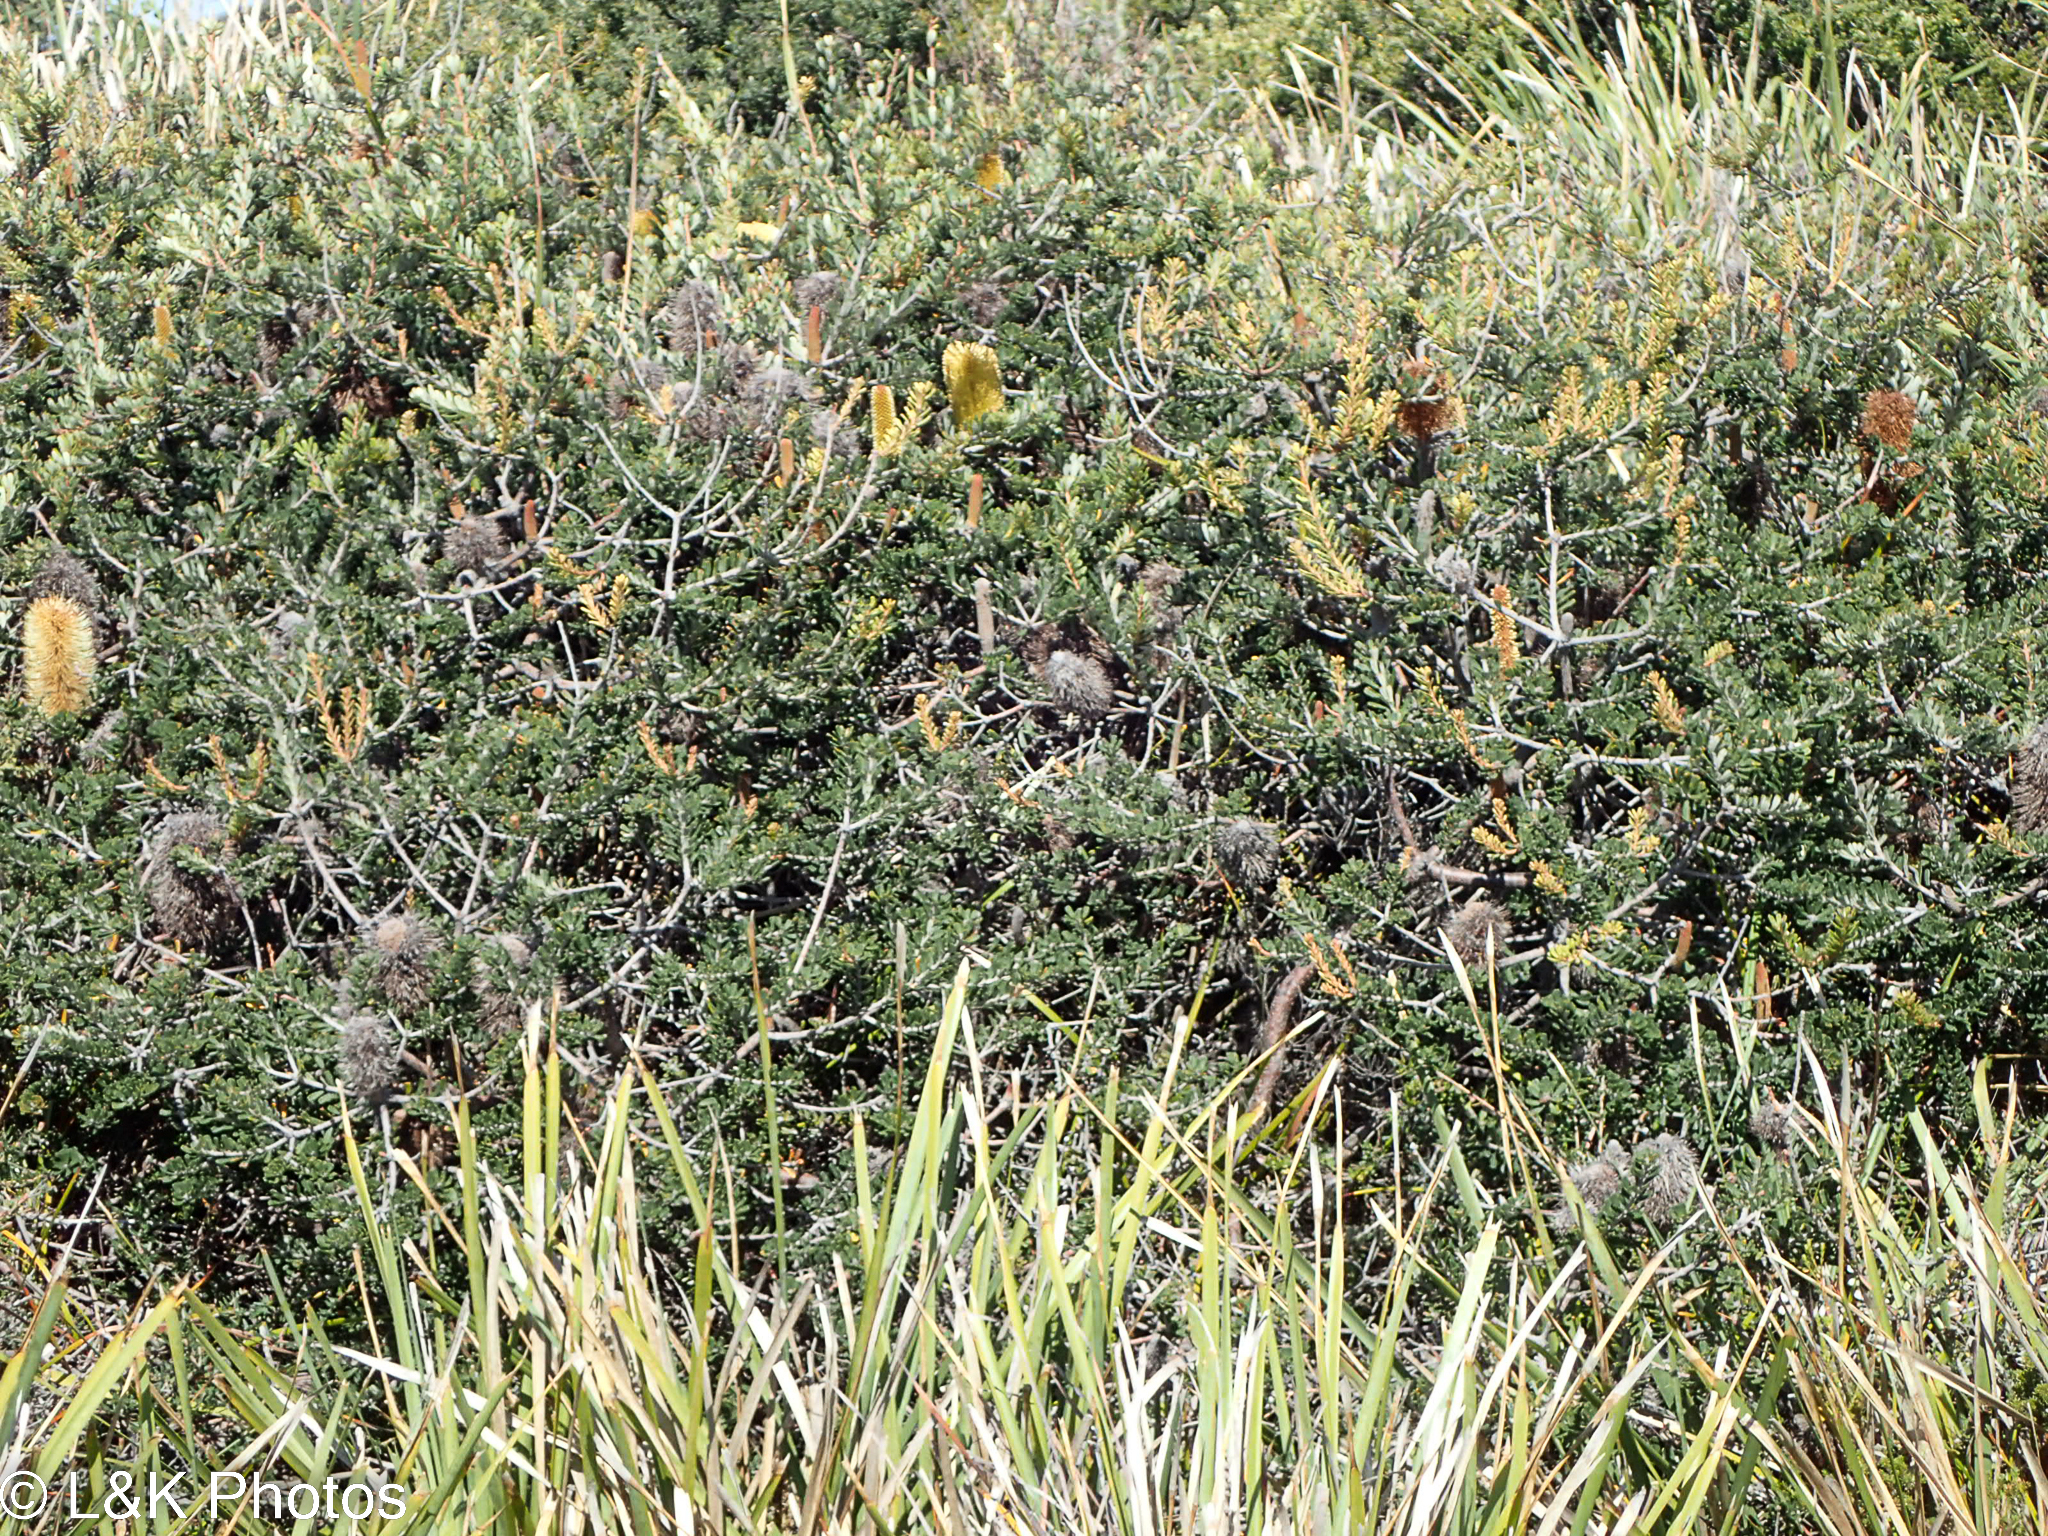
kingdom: Plantae
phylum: Tracheophyta
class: Magnoliopsida
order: Proteales
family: Proteaceae
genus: Banksia
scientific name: Banksia marginata
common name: Silver banksia
